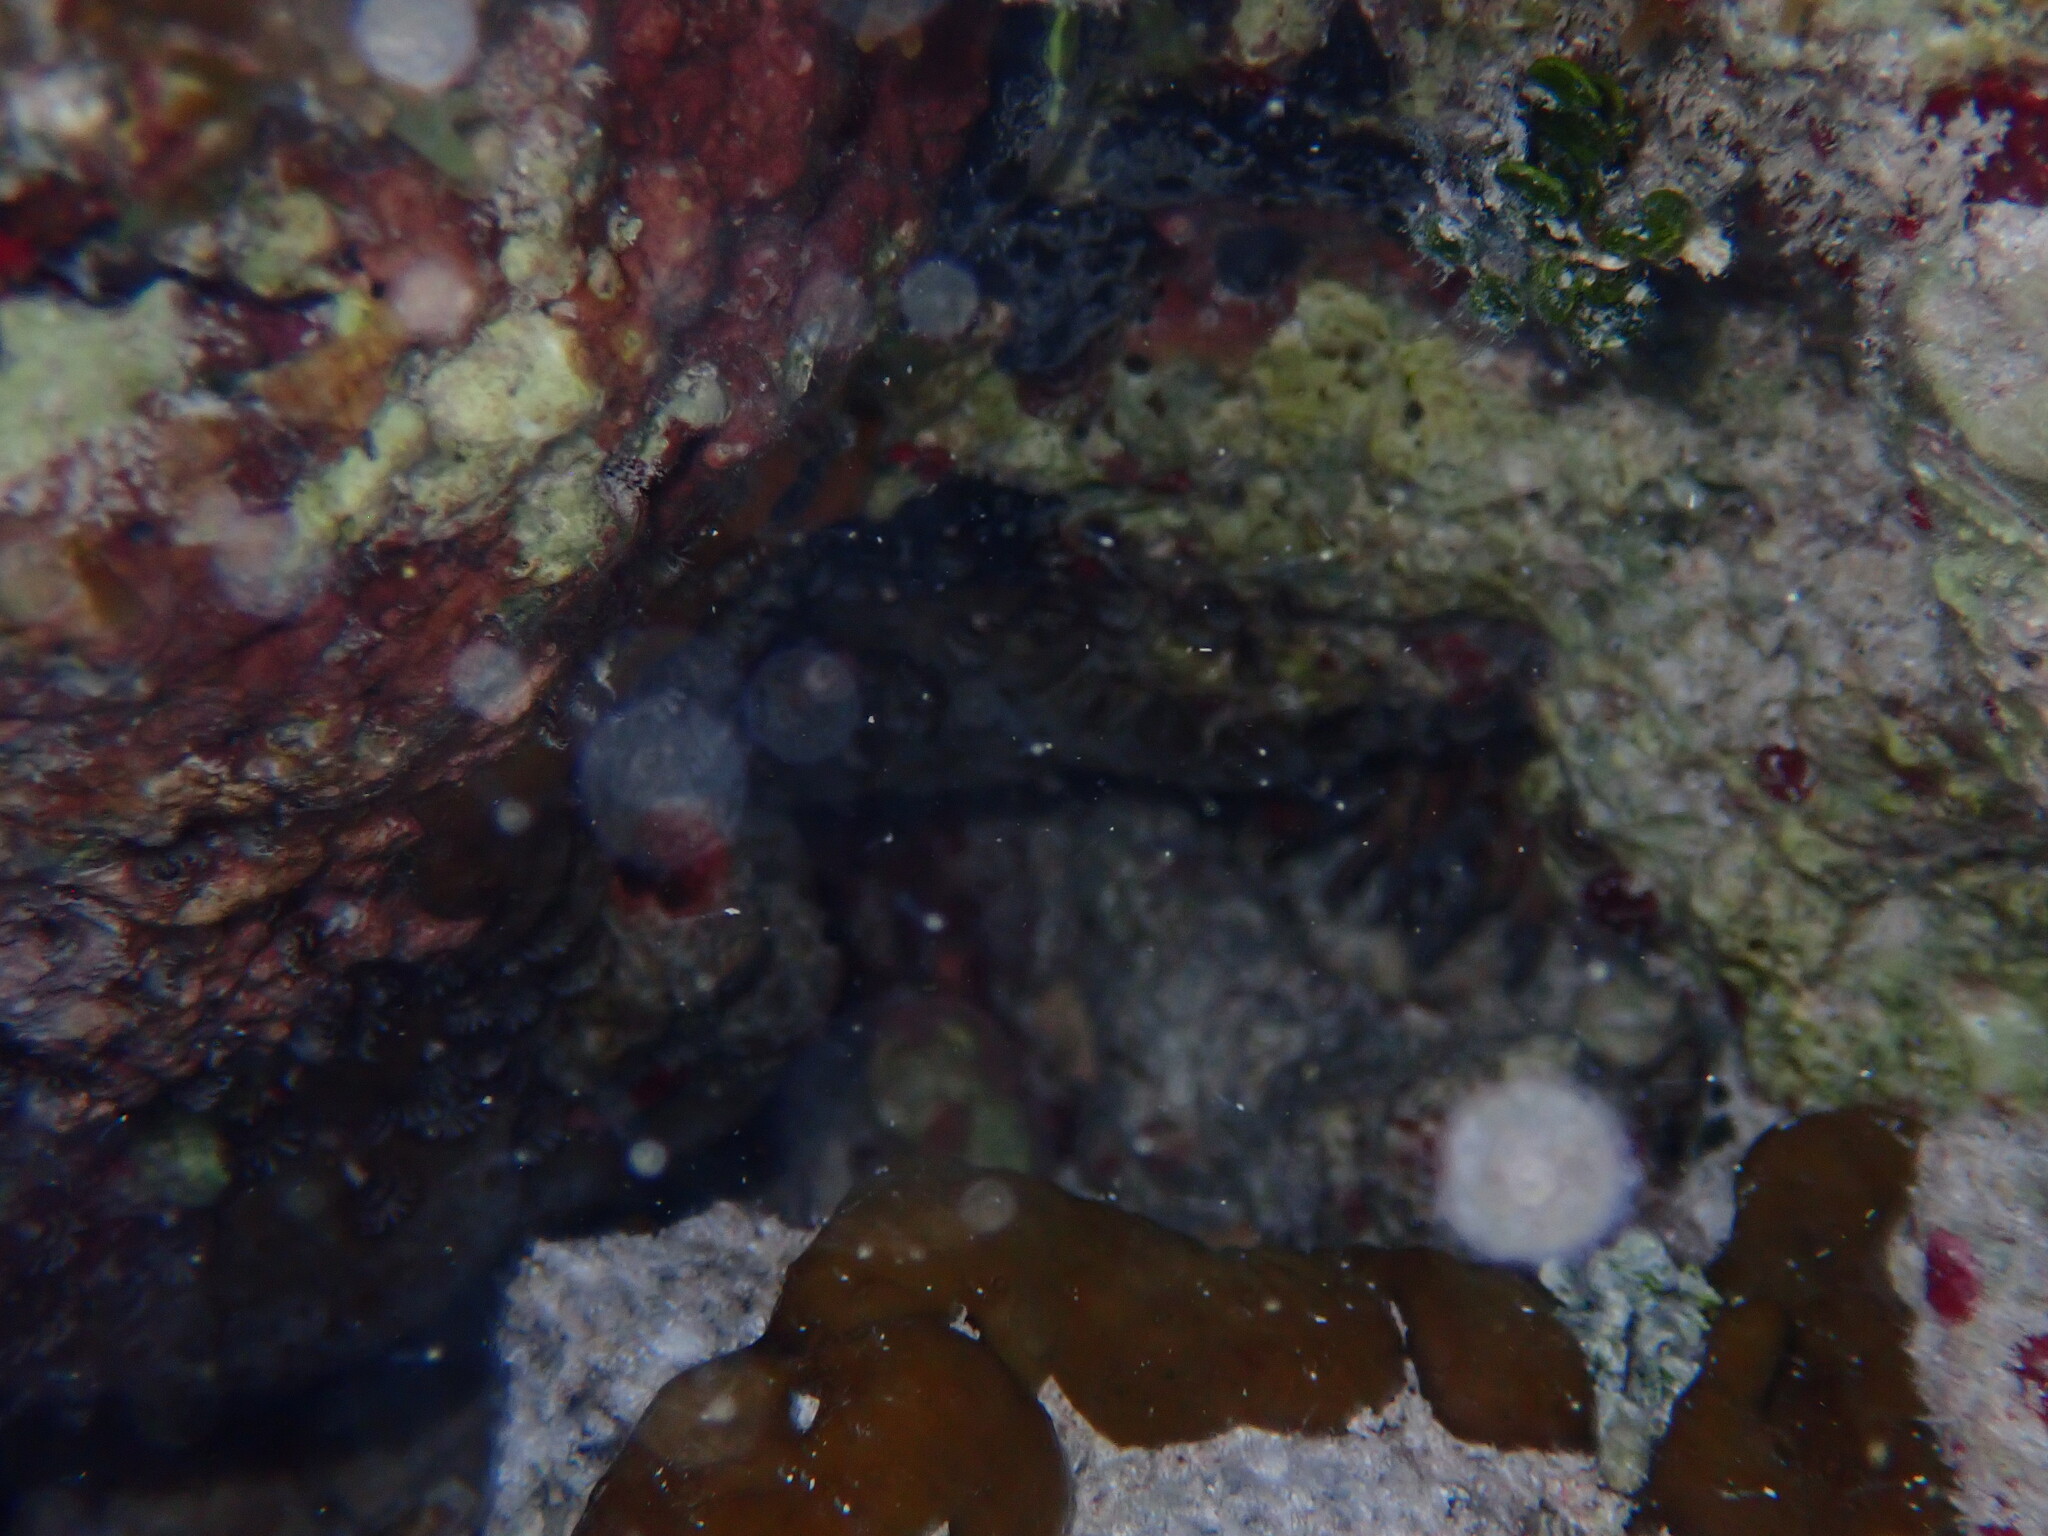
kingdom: Animalia
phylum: Echinodermata
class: Echinoidea
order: Cidaroida
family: Cidaridae
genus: Eucidaris
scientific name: Eucidaris tribuloides
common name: Slate pencil urchin
